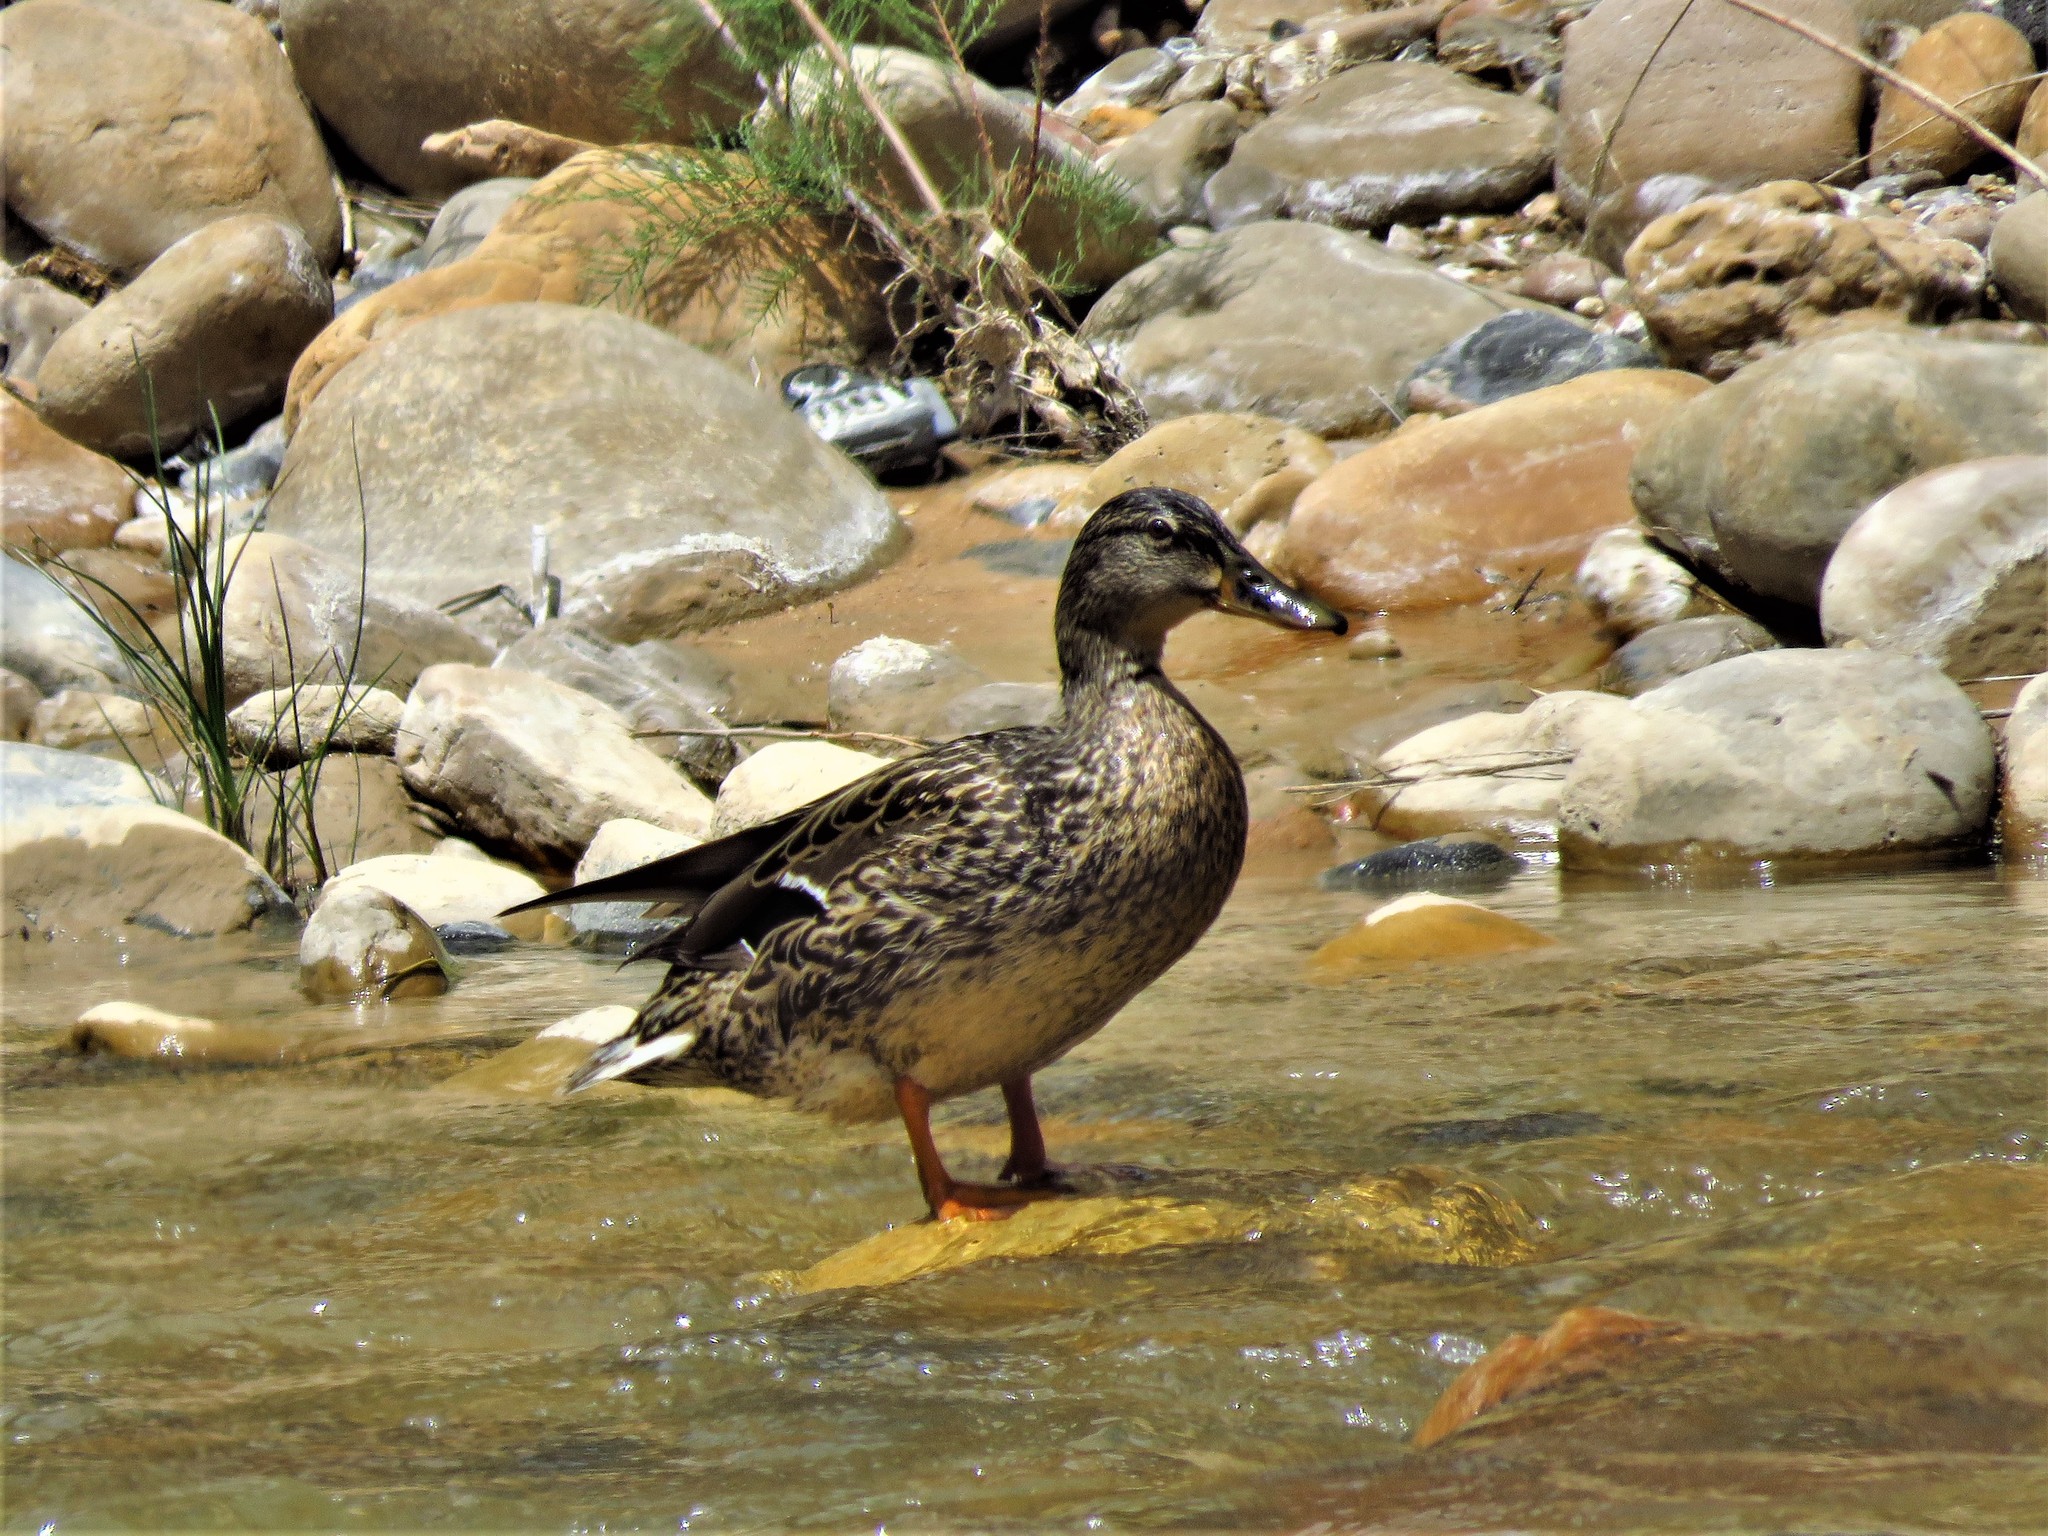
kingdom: Animalia
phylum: Chordata
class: Aves
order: Anseriformes
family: Anatidae
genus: Anas
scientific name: Anas platyrhynchos
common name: Mallard
